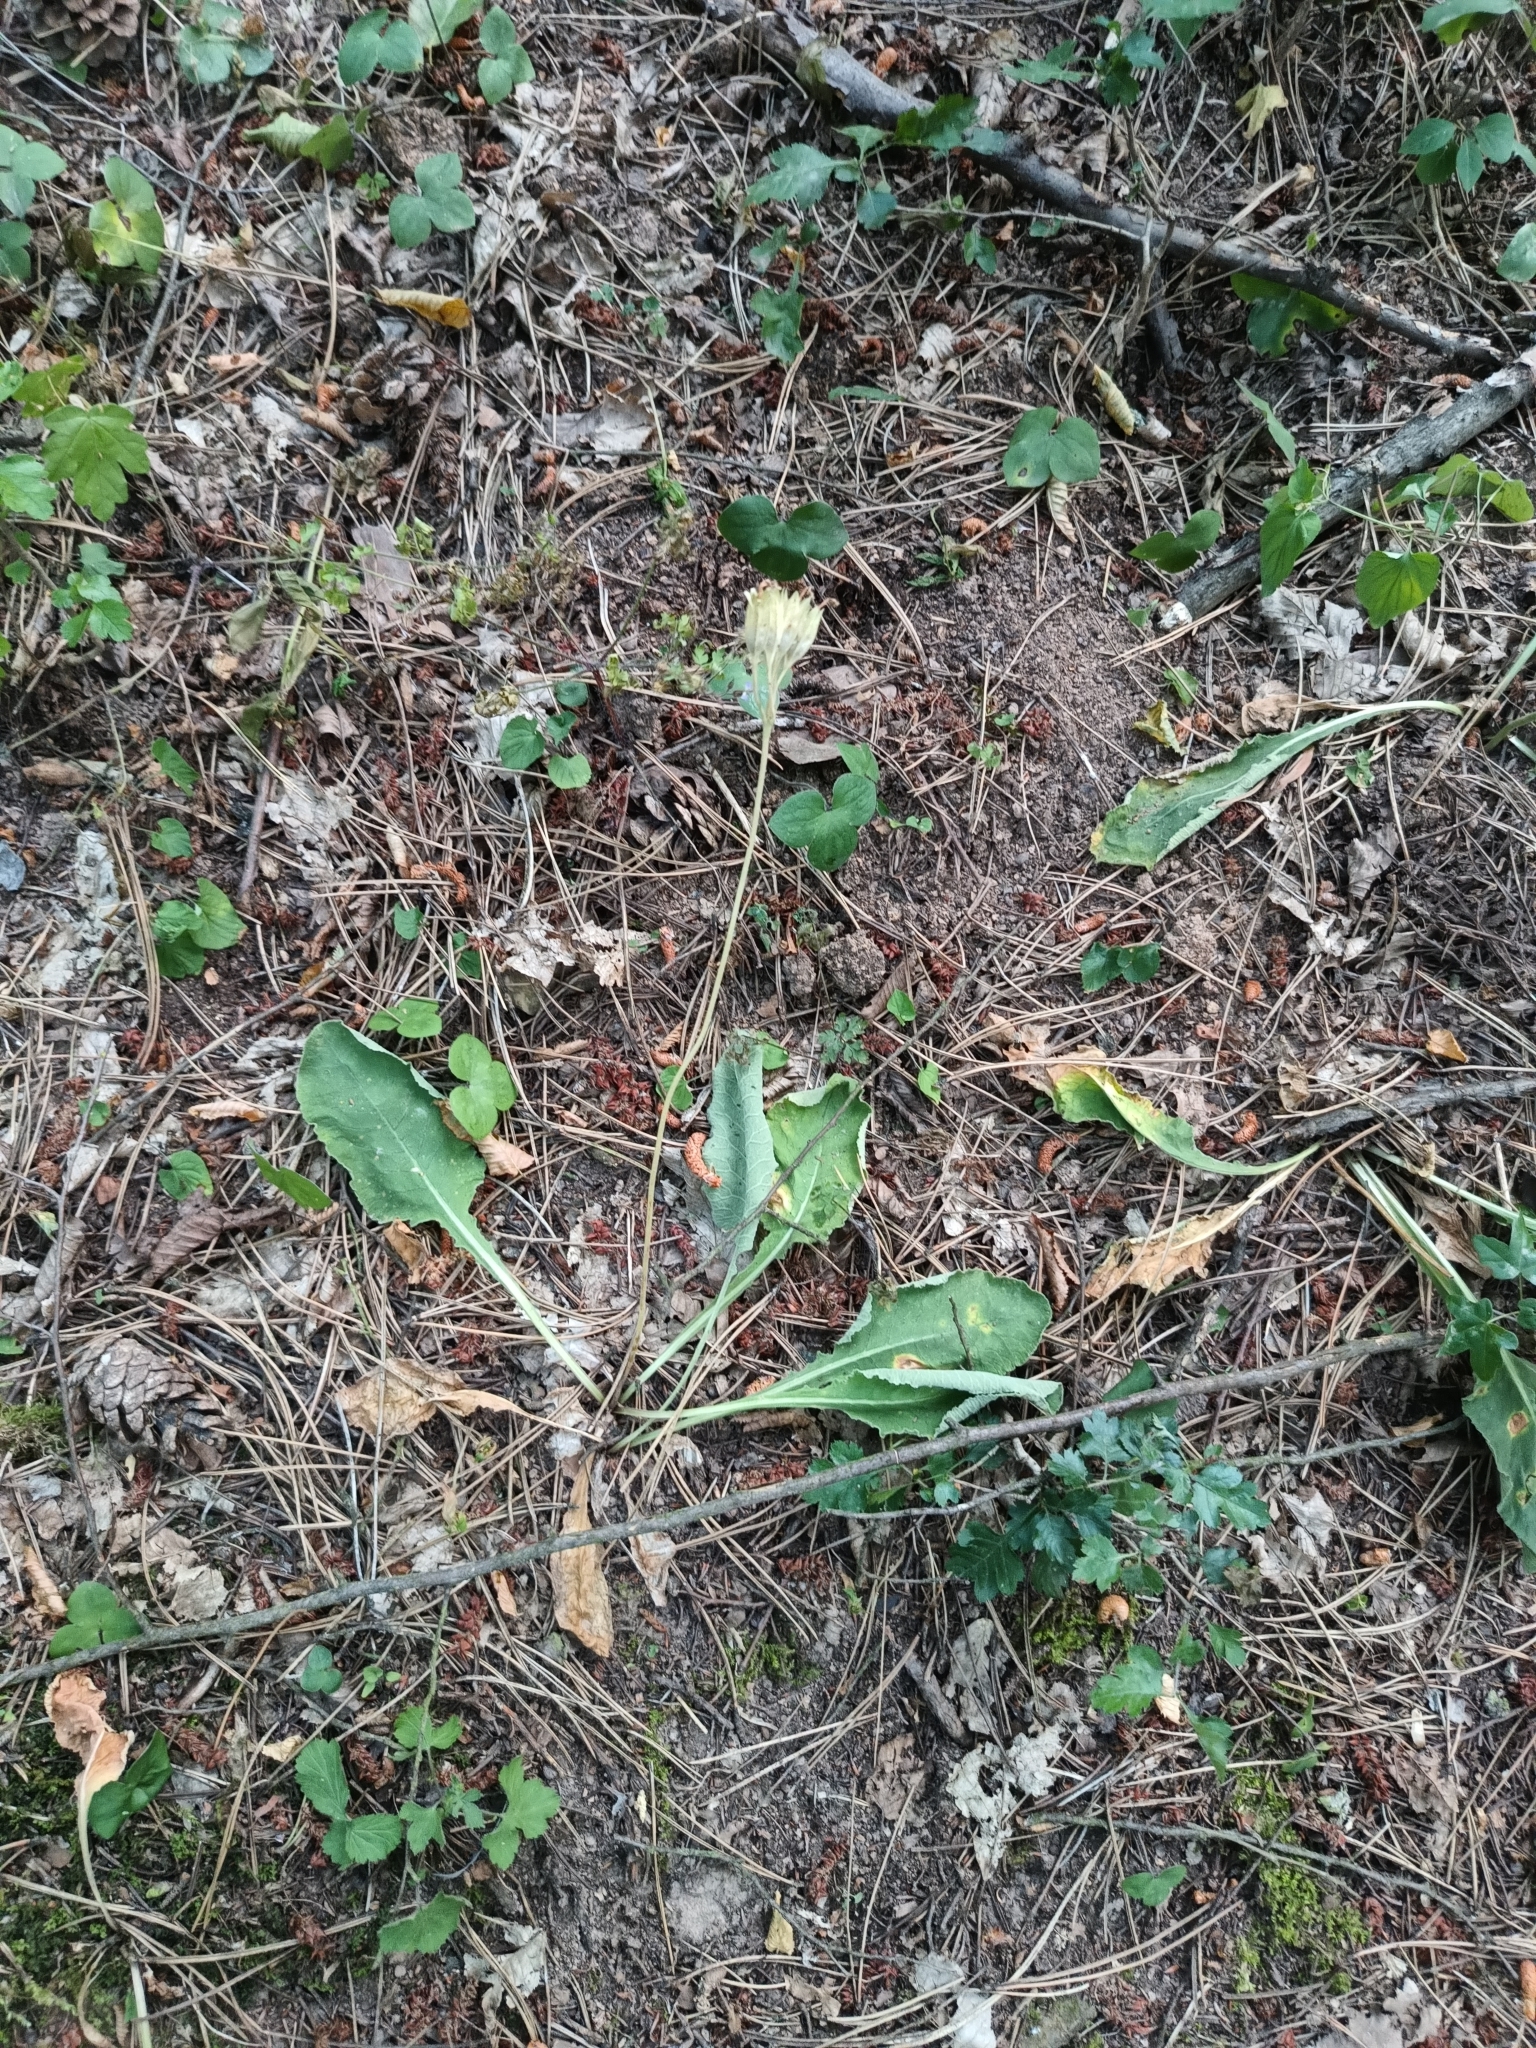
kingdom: Plantae
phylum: Tracheophyta
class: Magnoliopsida
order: Ericales
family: Primulaceae
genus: Primula
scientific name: Primula veris
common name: Cowslip
